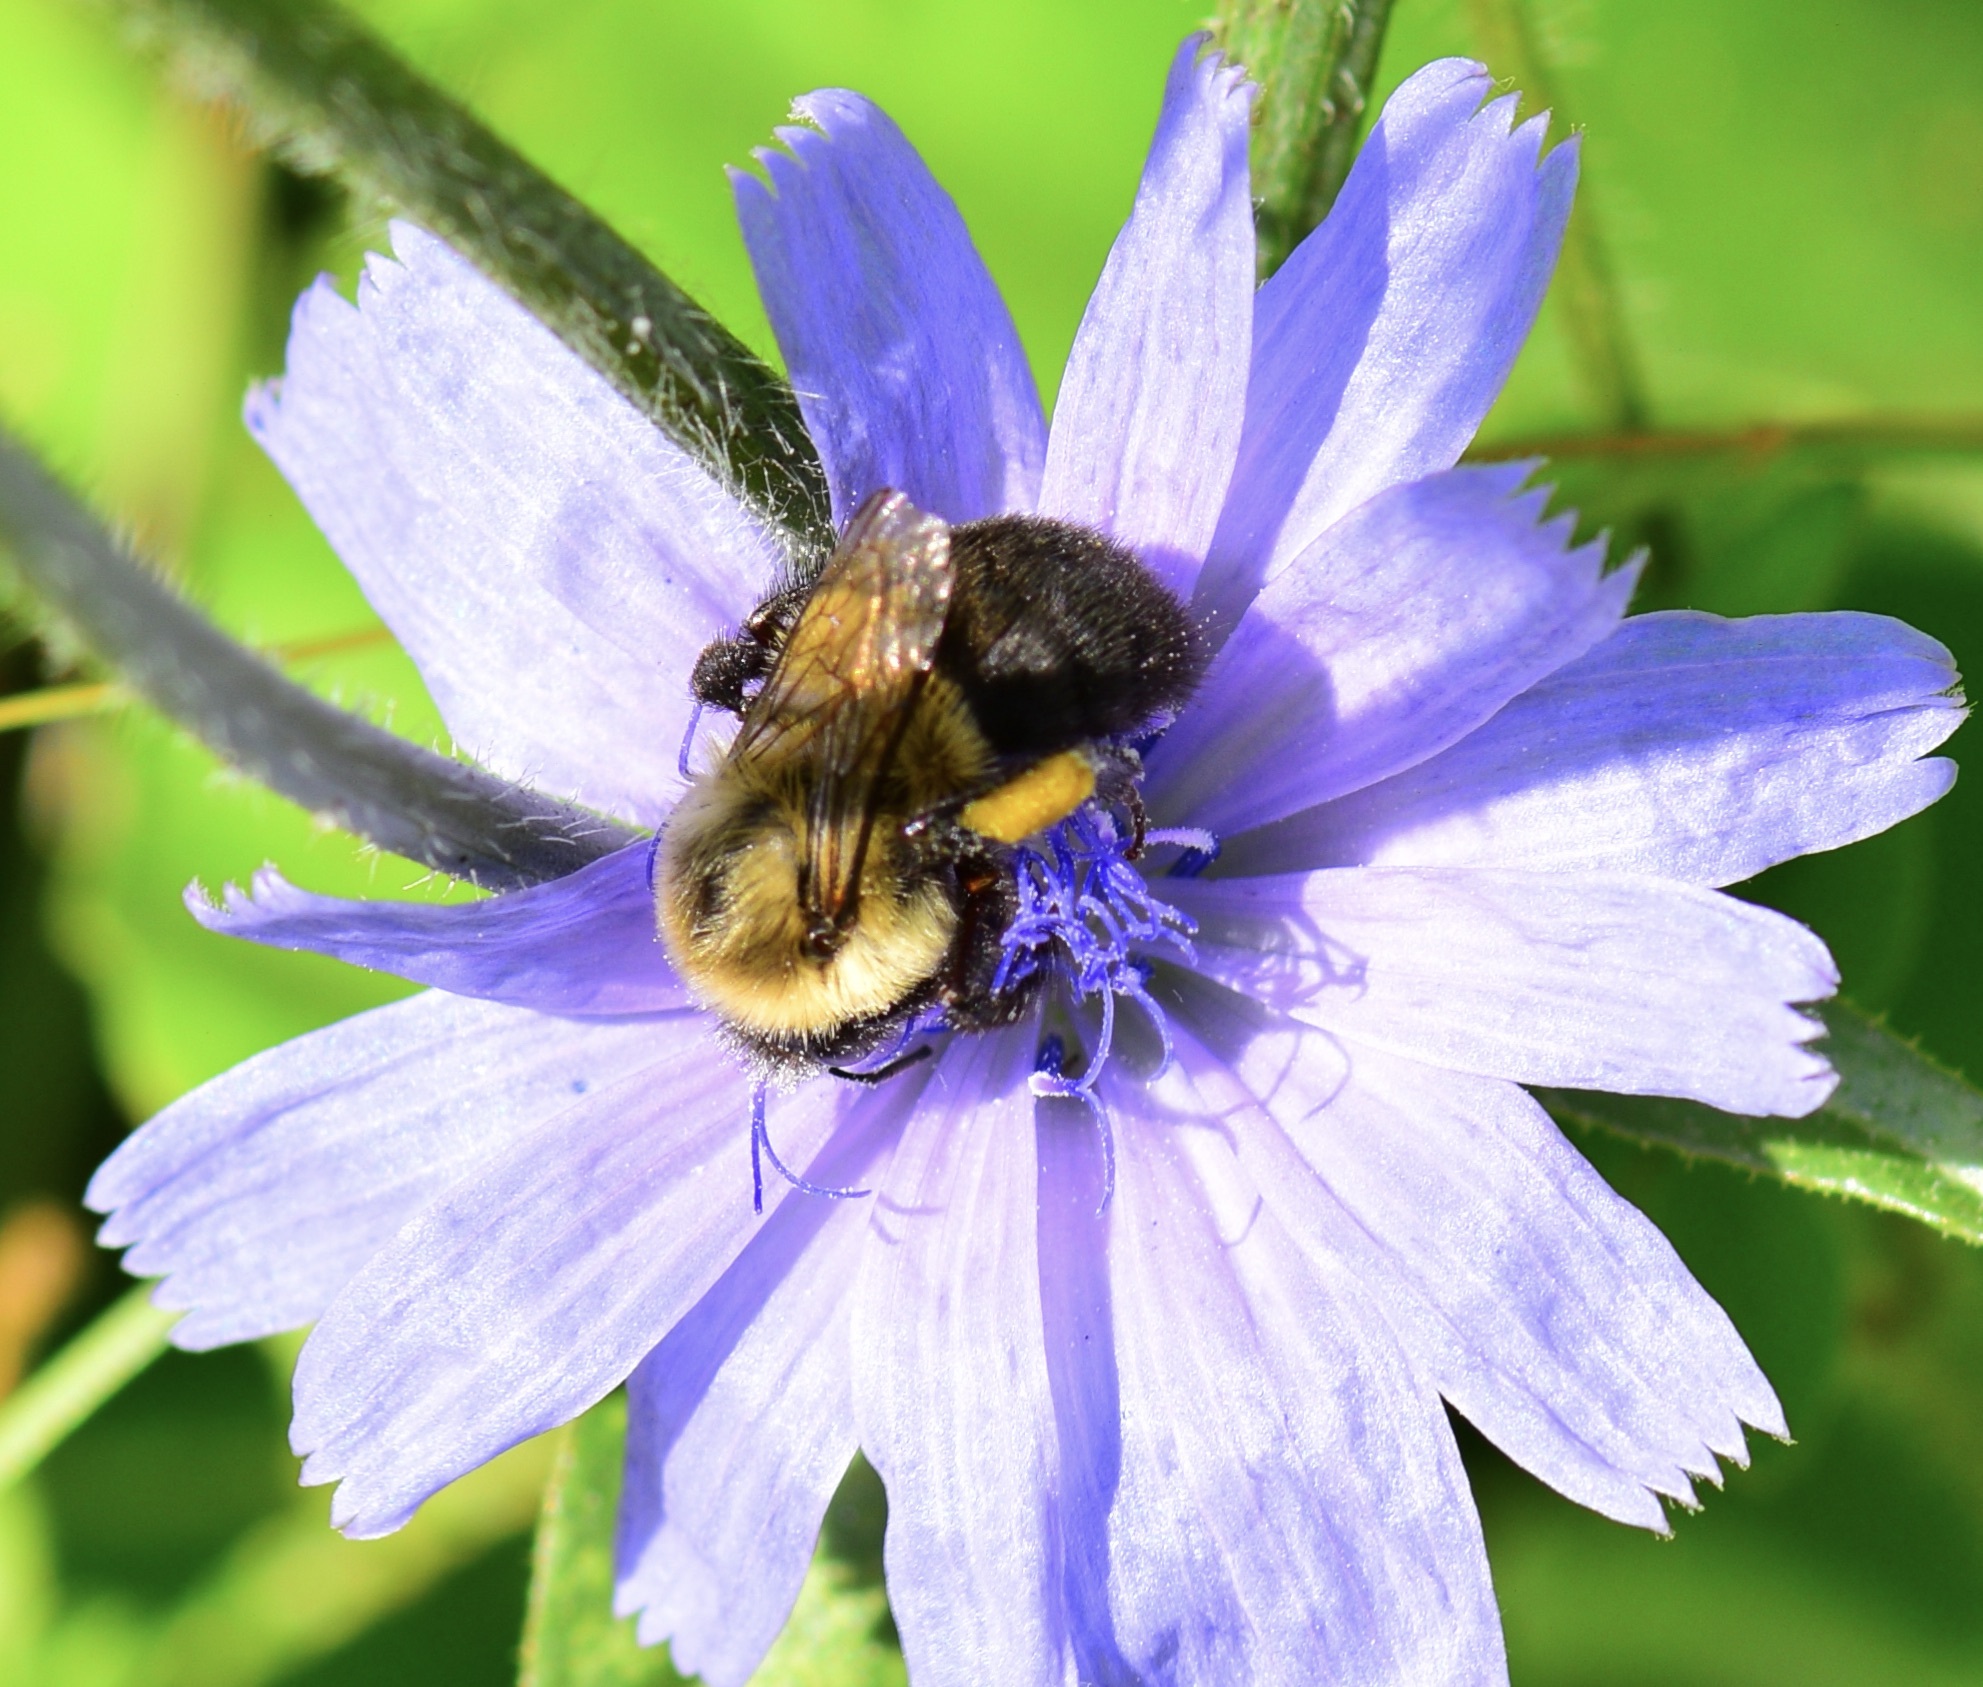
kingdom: Animalia
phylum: Arthropoda
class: Insecta
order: Hymenoptera
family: Apidae
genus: Bombus
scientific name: Bombus impatiens
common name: Common eastern bumble bee
